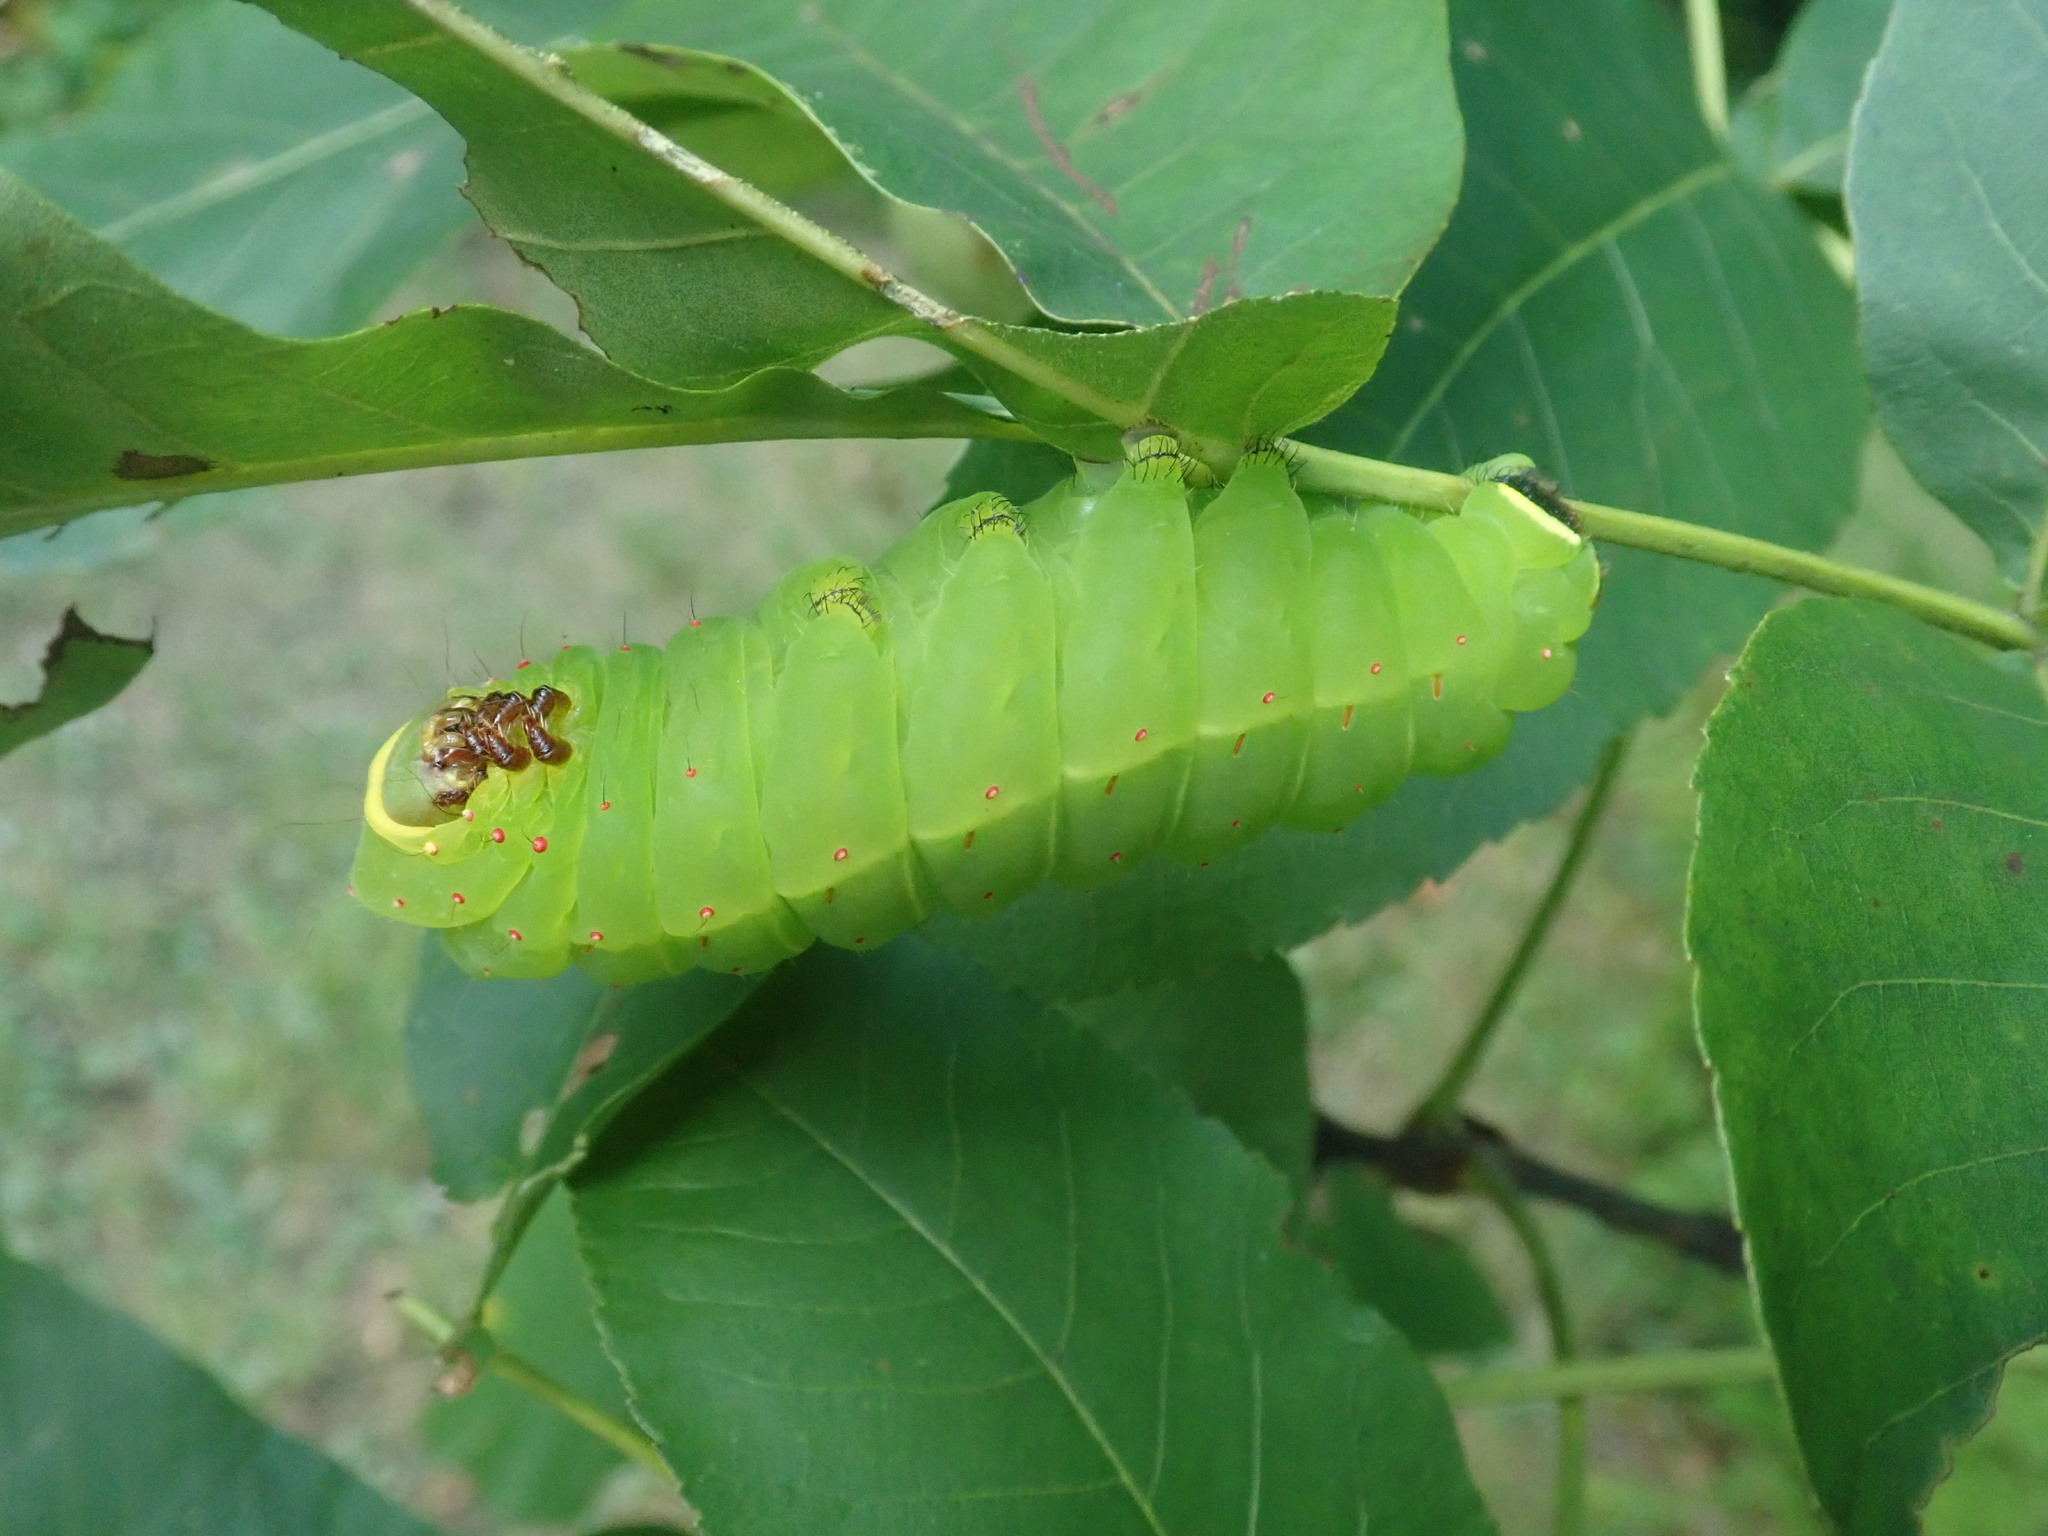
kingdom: Animalia
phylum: Arthropoda
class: Insecta
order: Lepidoptera
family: Saturniidae
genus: Actias
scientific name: Actias luna
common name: Luna moth
